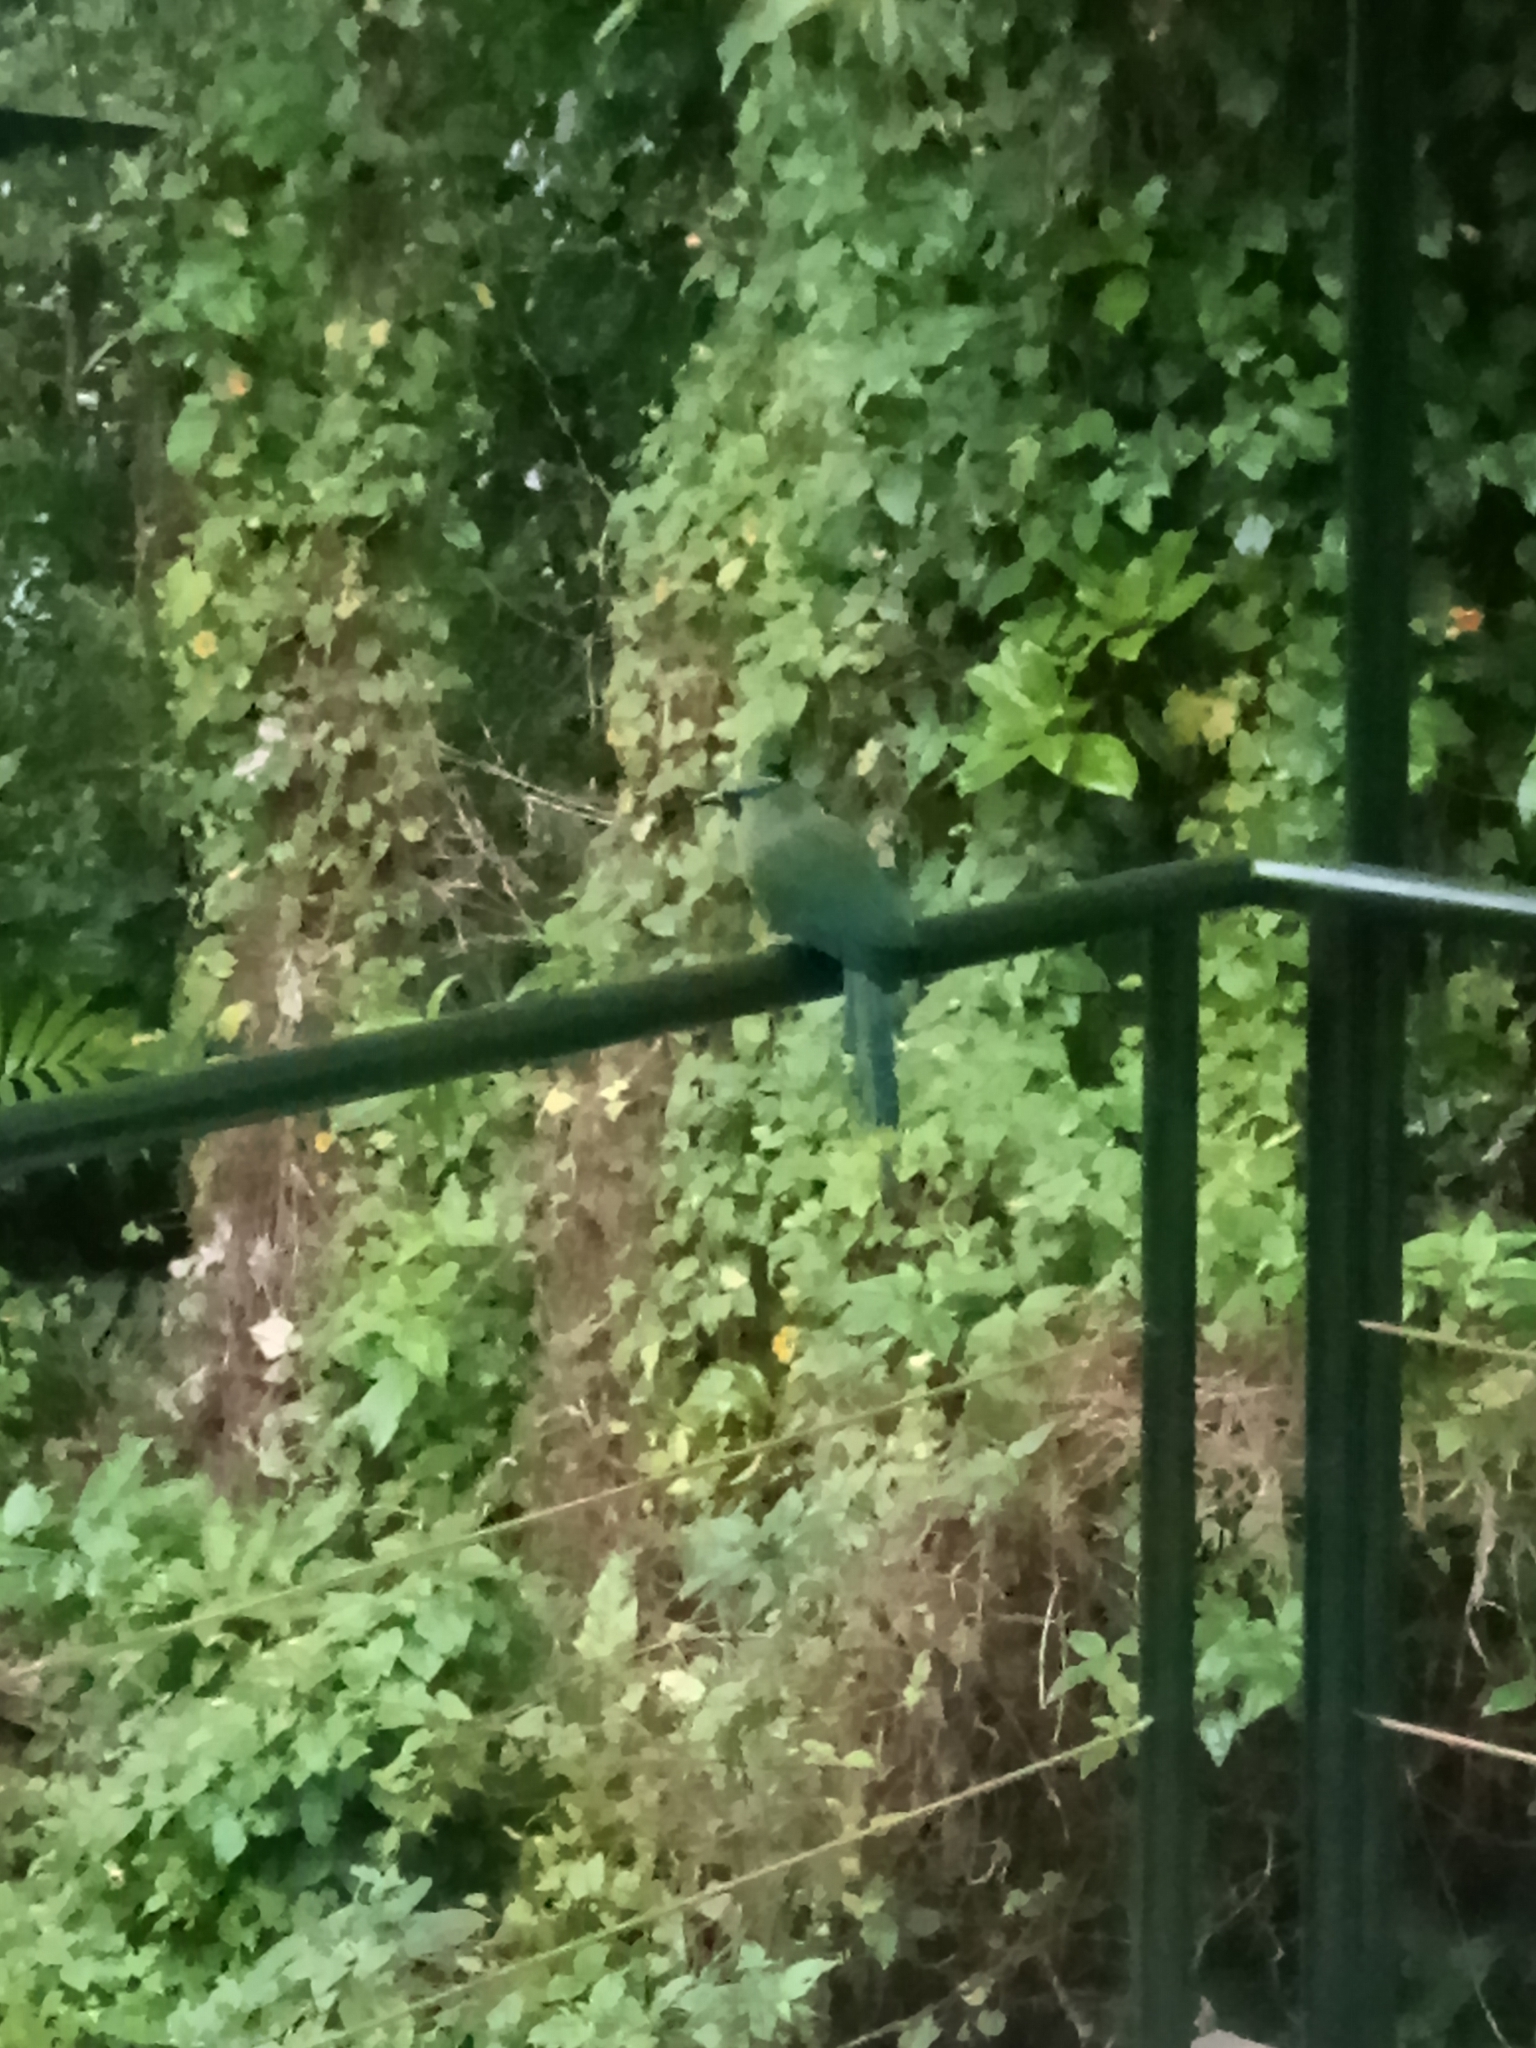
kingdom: Animalia
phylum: Chordata
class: Aves
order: Coraciiformes
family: Momotidae
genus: Momotus
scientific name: Momotus lessonii
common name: Lesson's motmot
